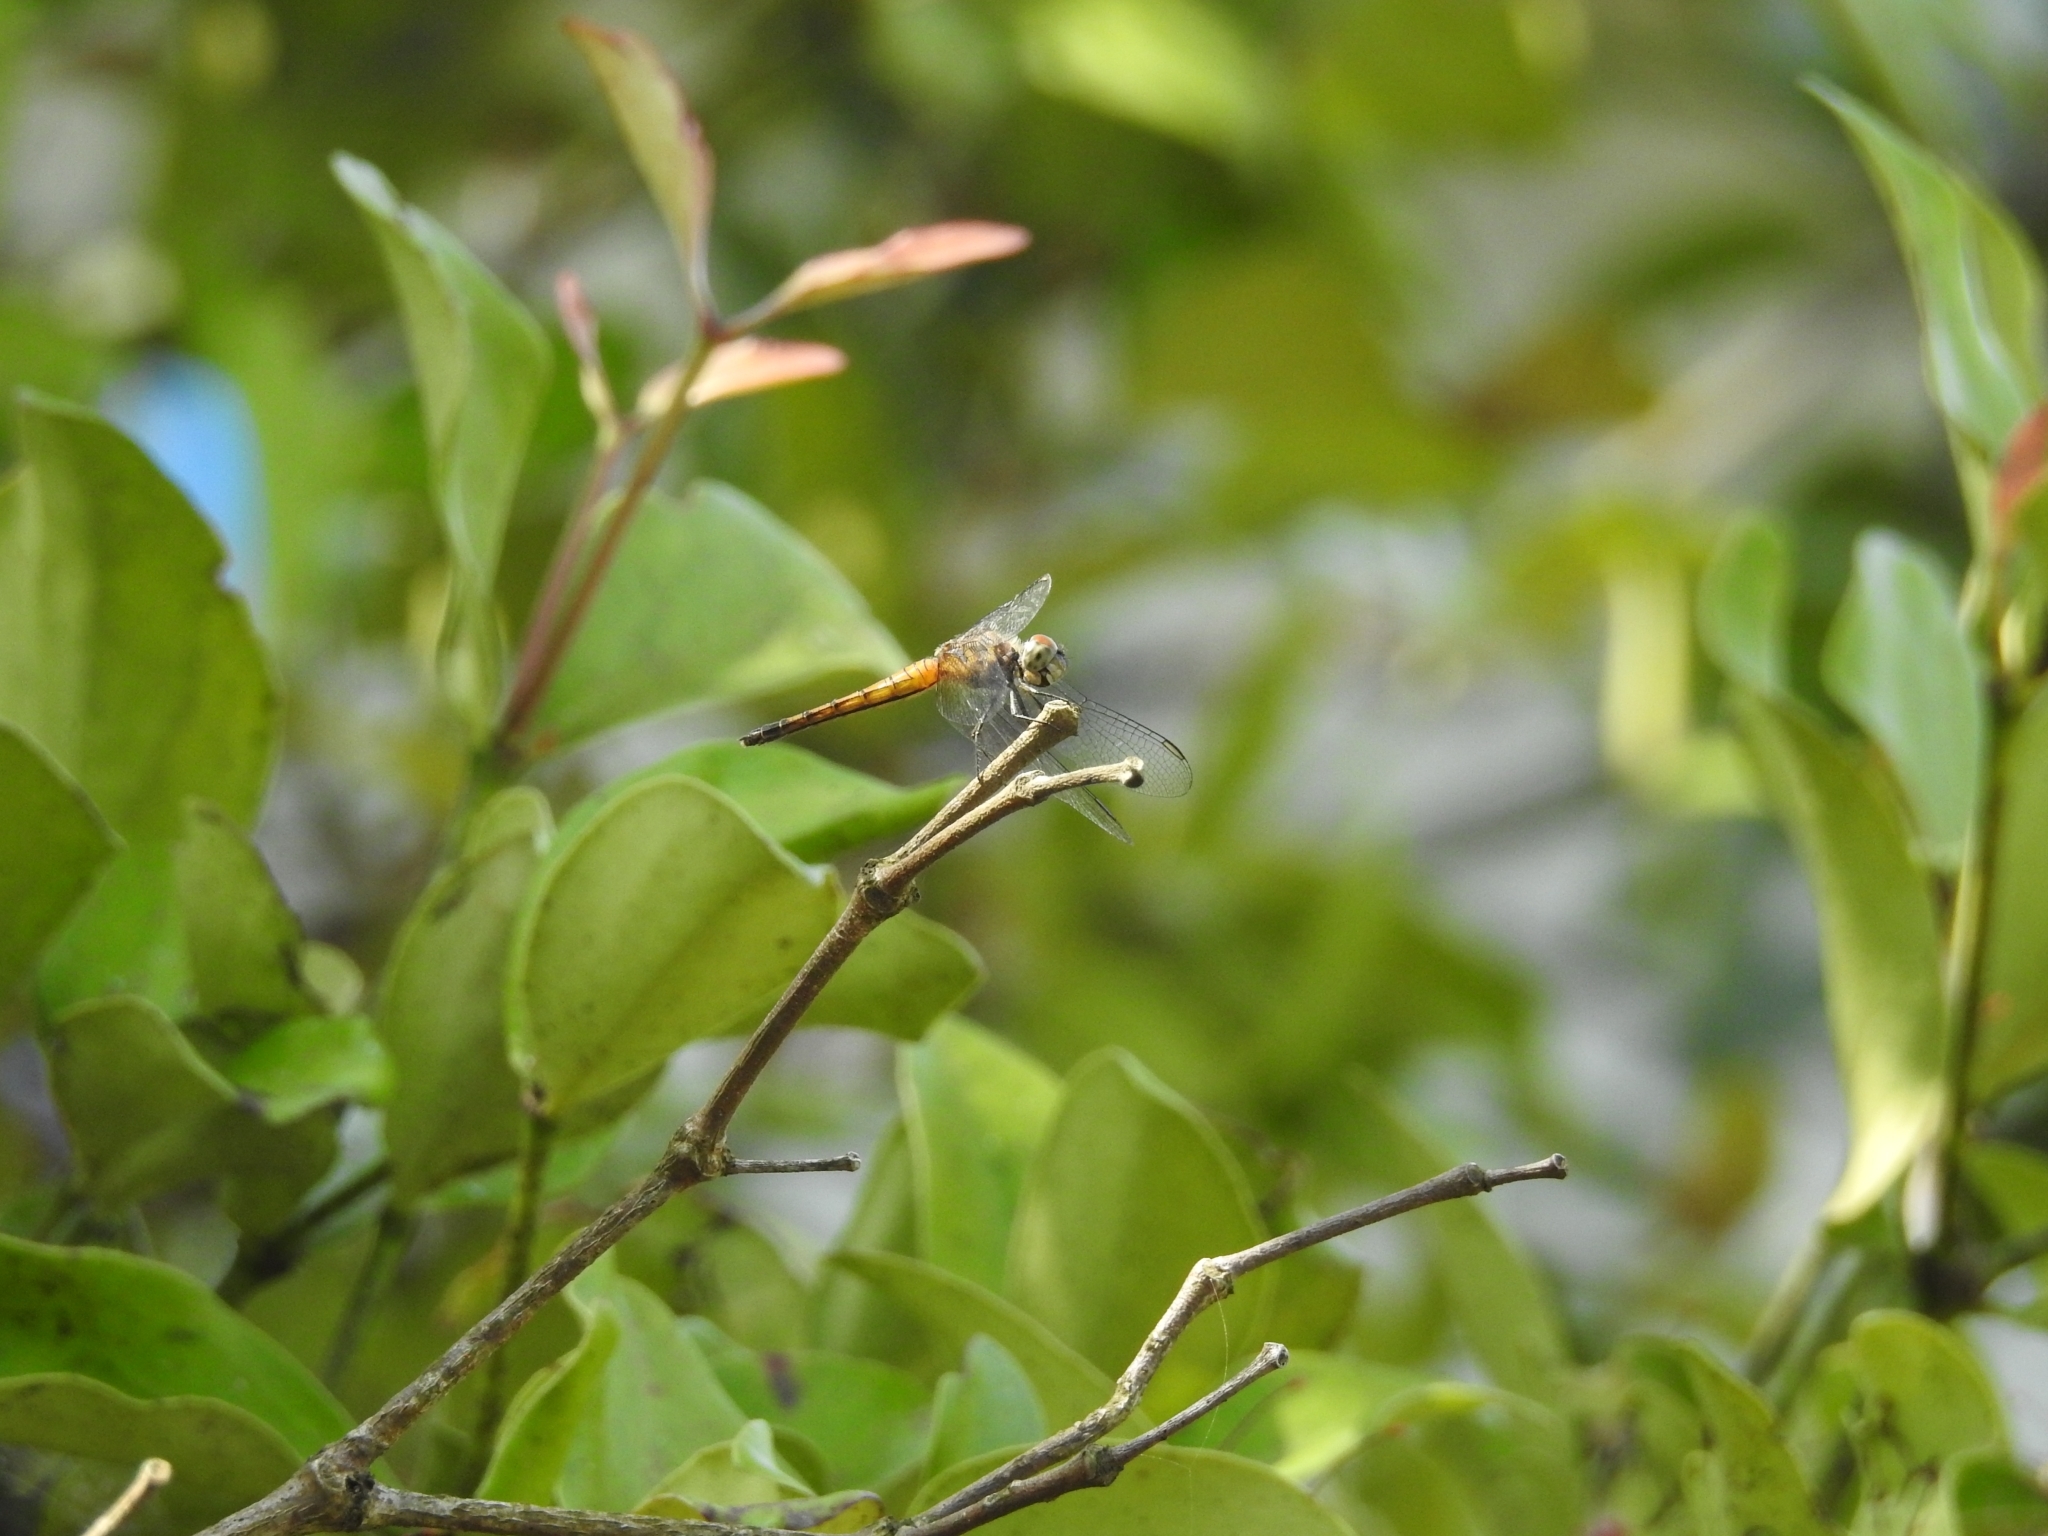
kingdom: Animalia
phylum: Arthropoda
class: Insecta
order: Odonata
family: Libellulidae
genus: Brachydiplax
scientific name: Brachydiplax chalybea
